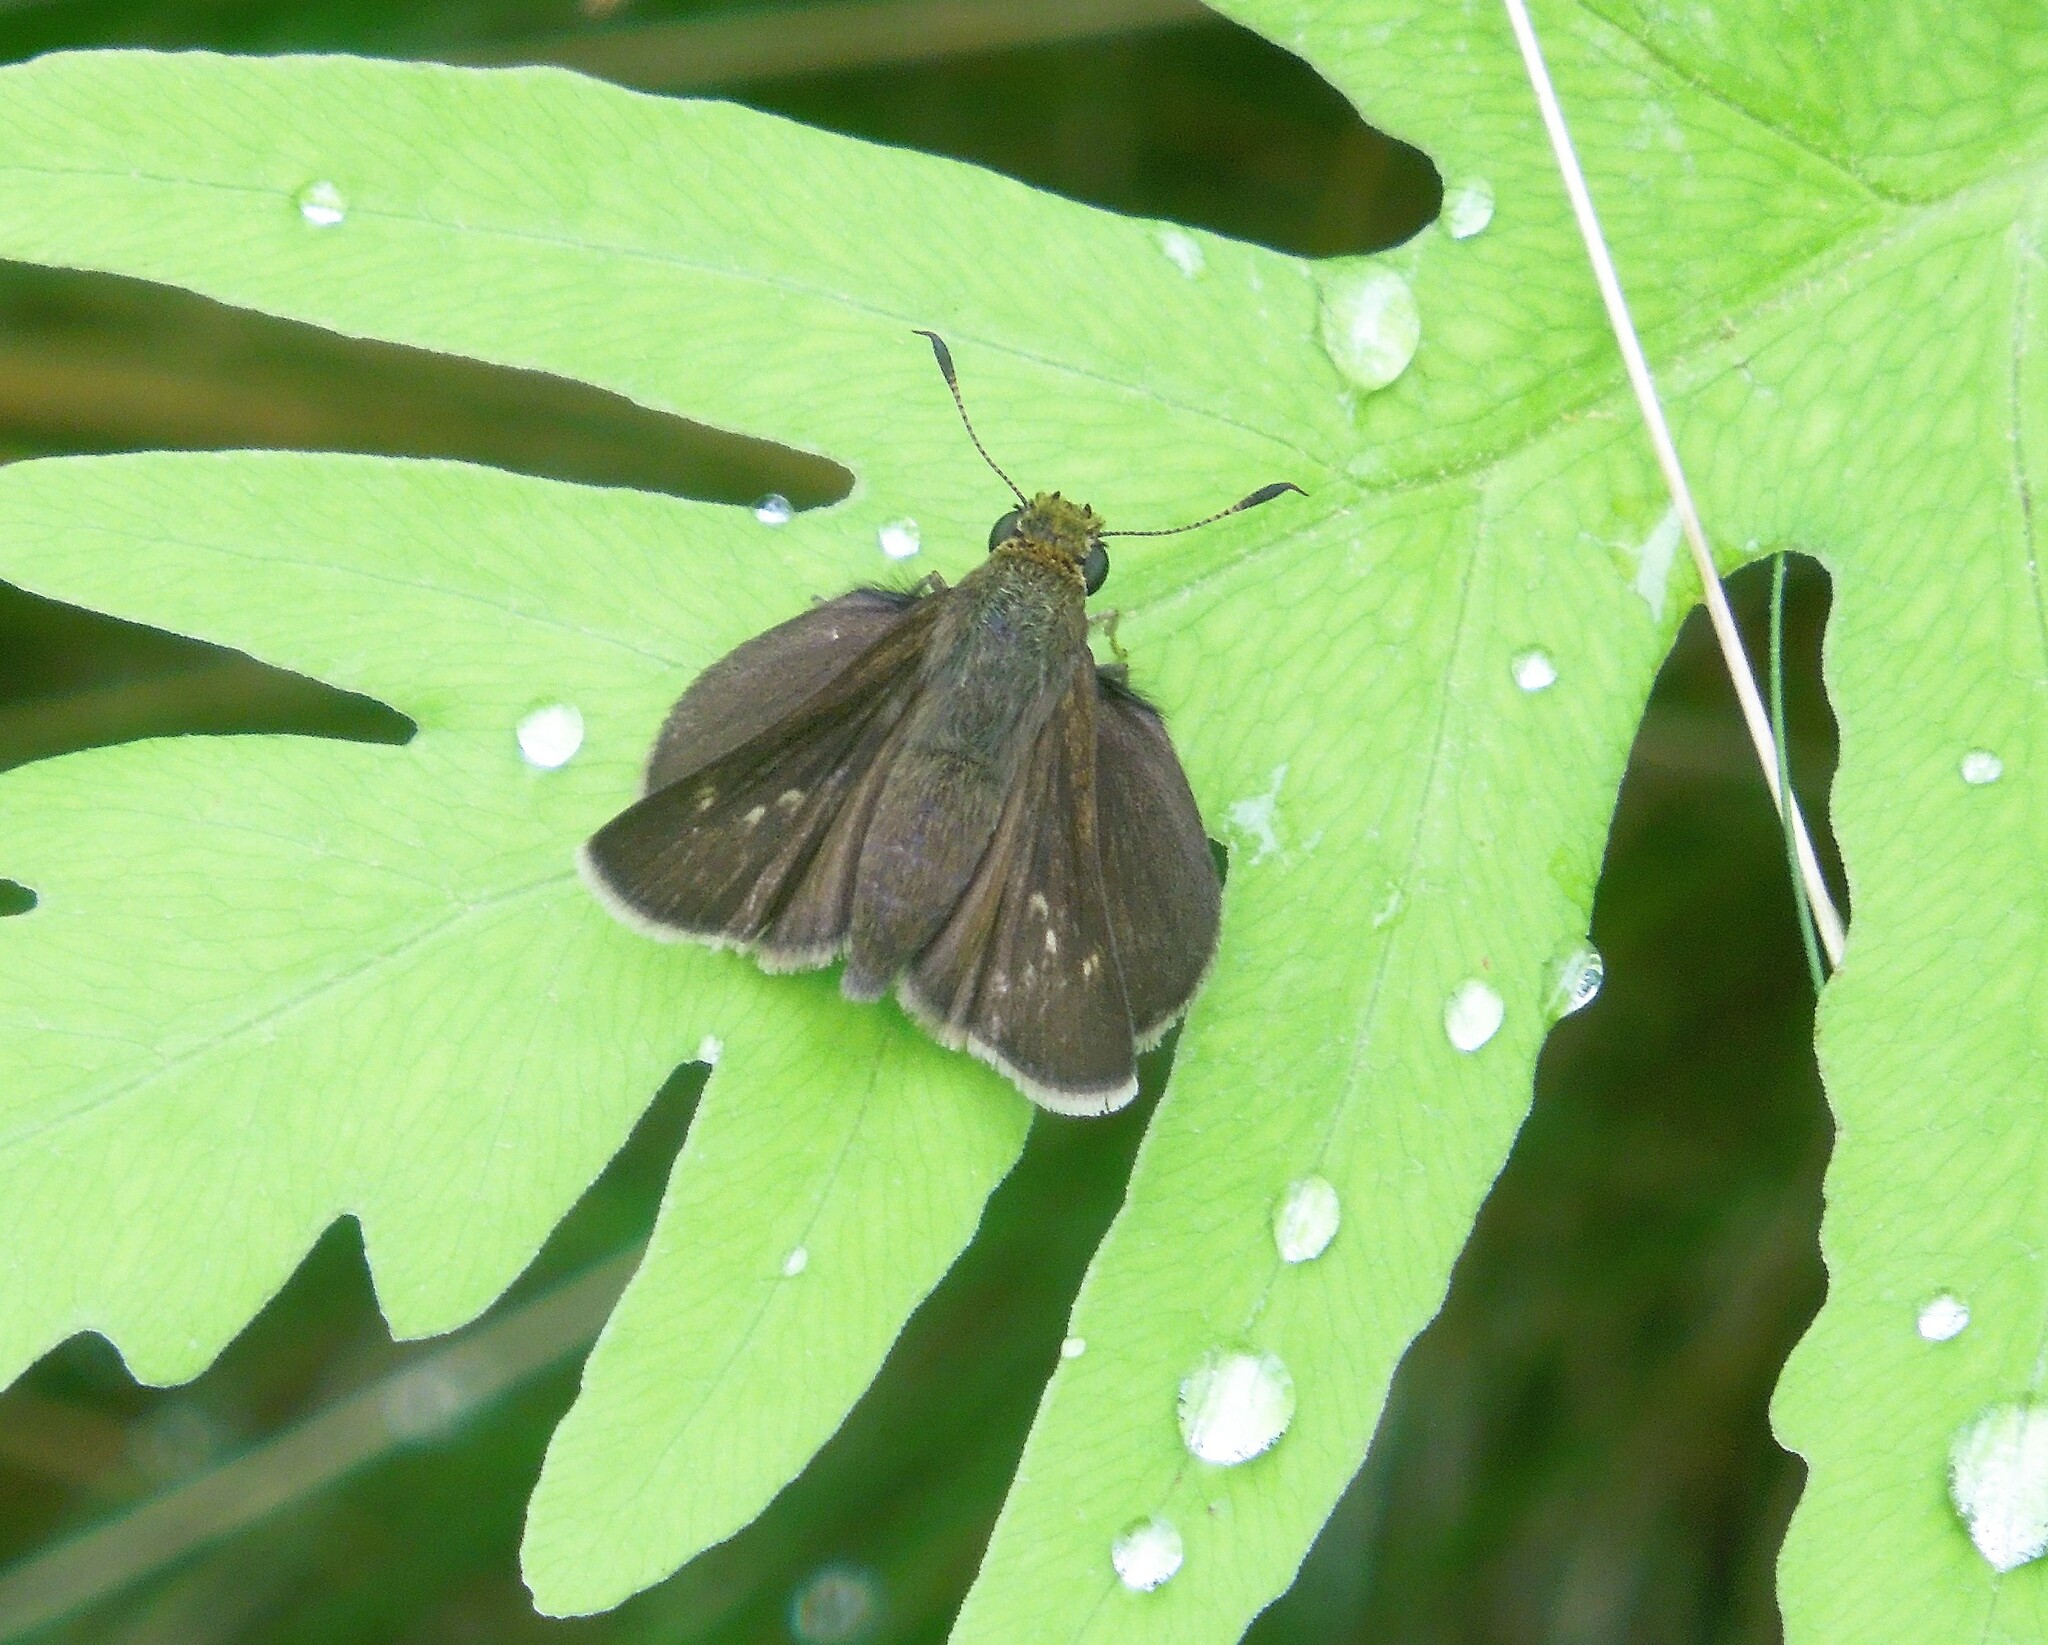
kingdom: Animalia
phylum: Arthropoda
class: Insecta
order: Lepidoptera
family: Hesperiidae
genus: Euphyes
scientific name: Euphyes vestris
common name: Dun skipper
